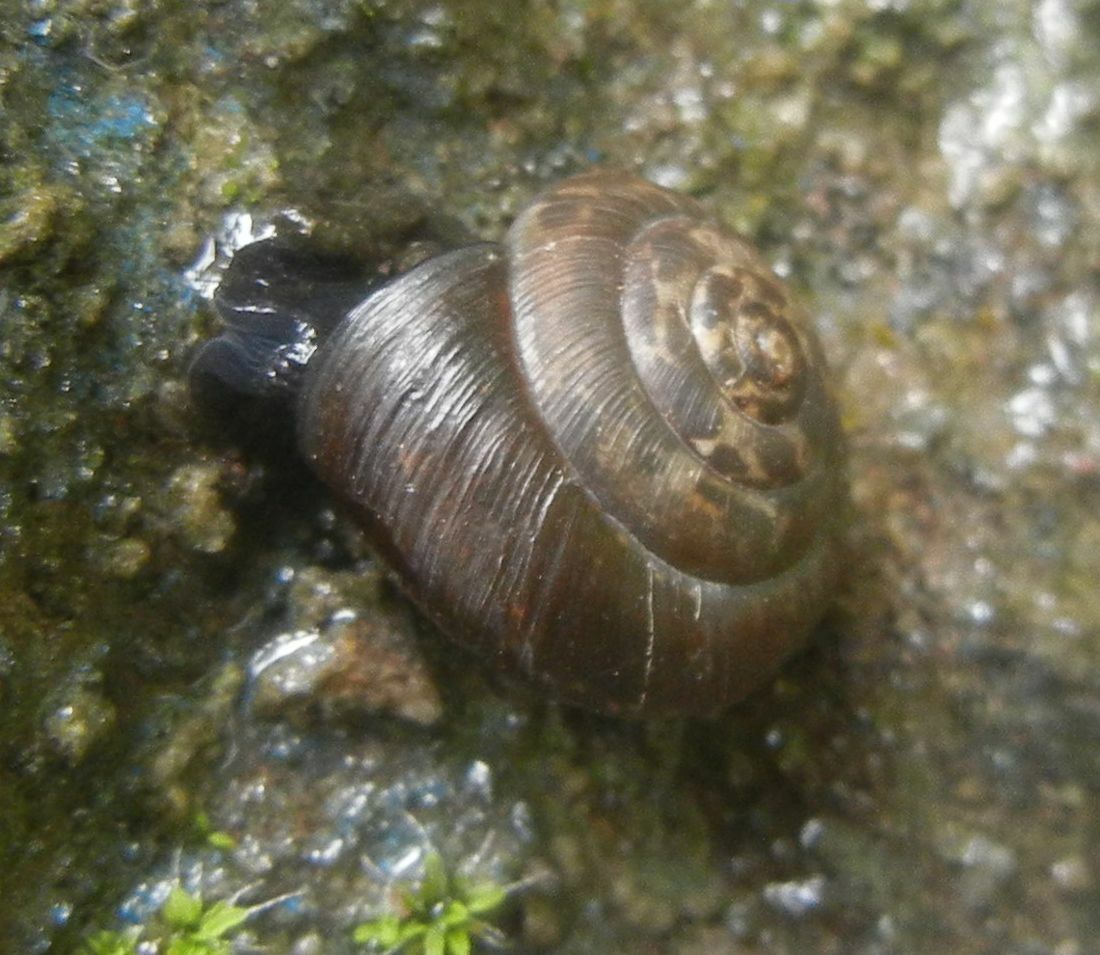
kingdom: Animalia
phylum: Mollusca
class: Gastropoda
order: Stylommatophora
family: Hygromiidae
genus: Trochulus
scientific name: Trochulus striolatus
